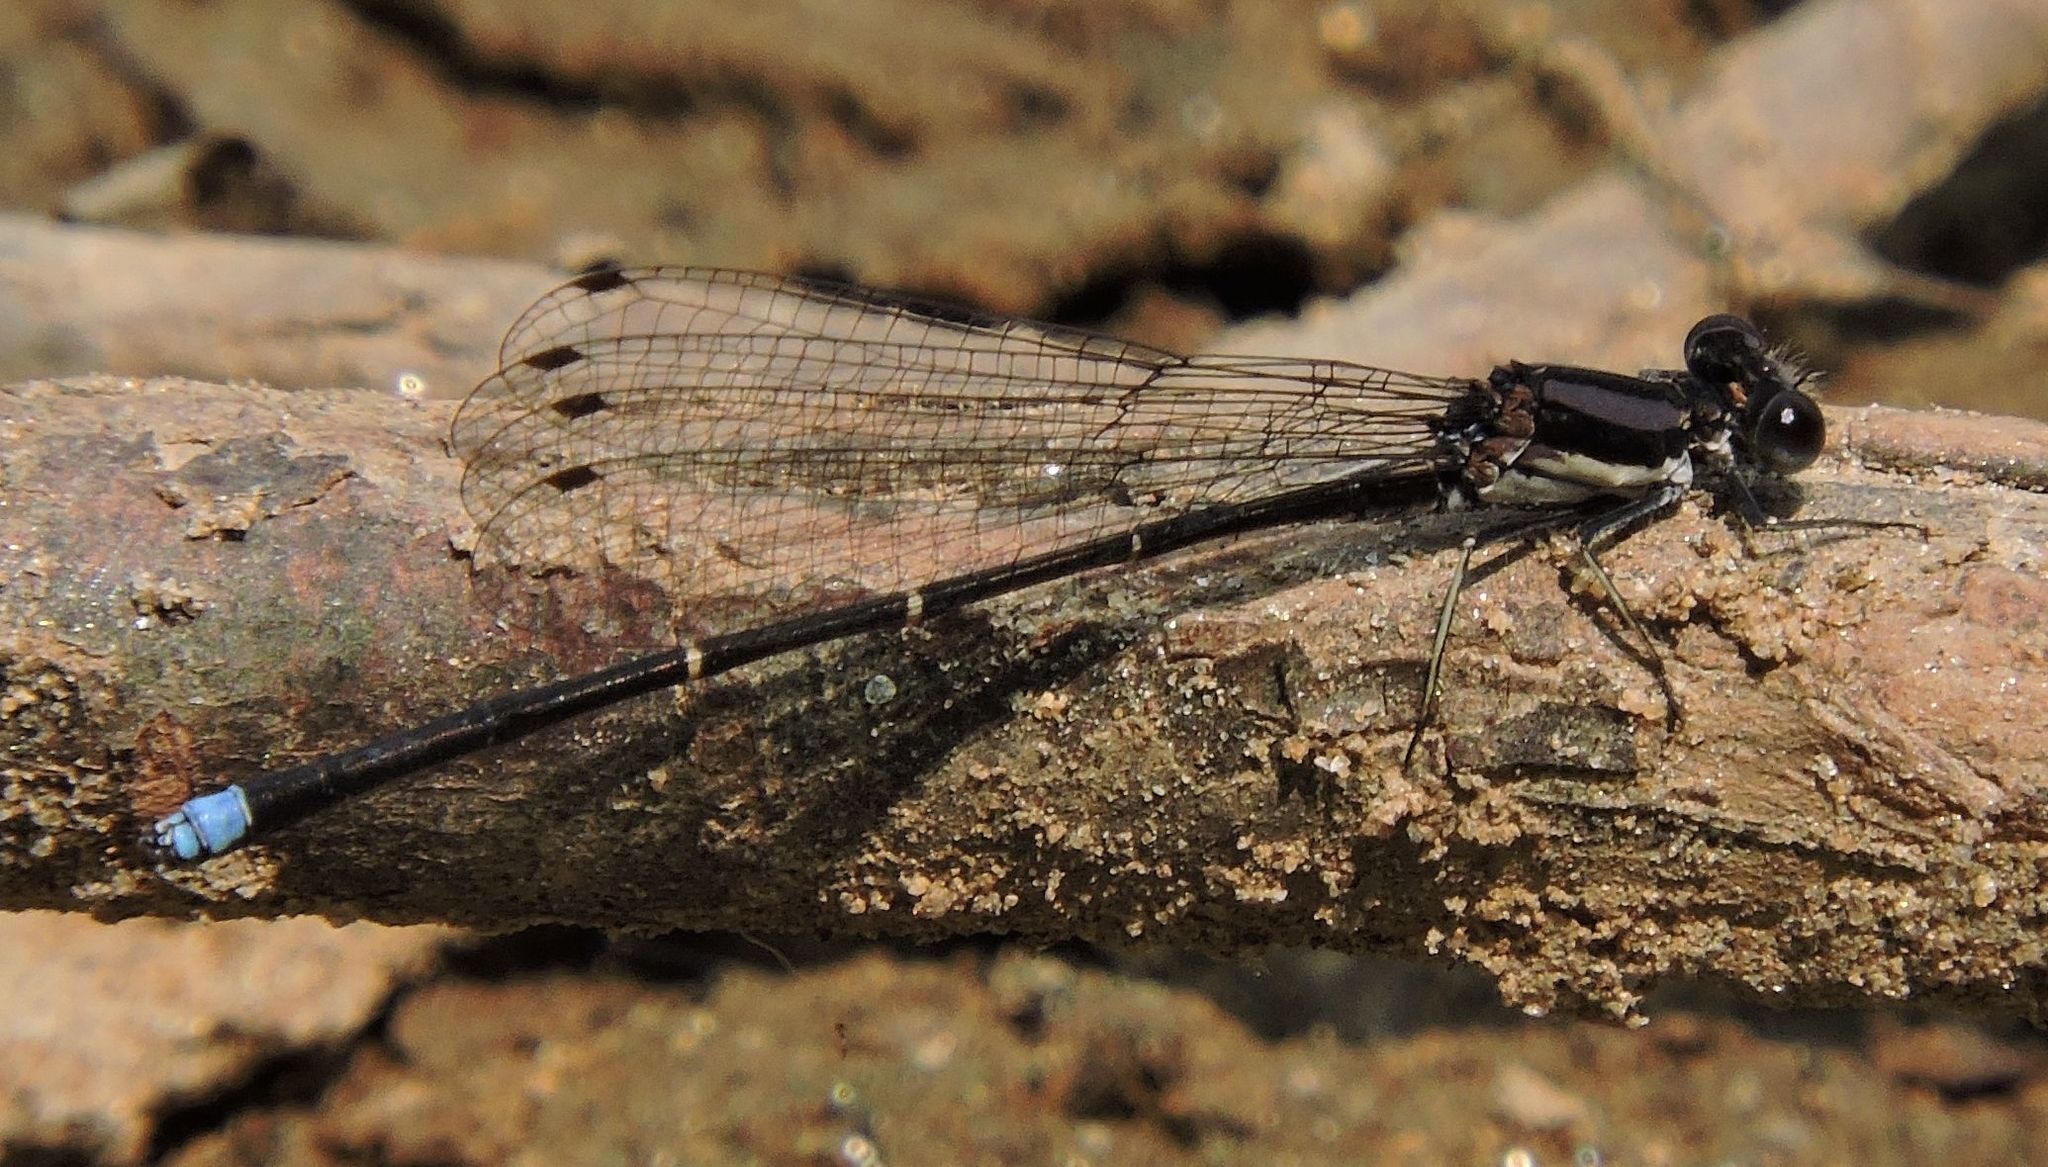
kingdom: Animalia
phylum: Arthropoda
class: Insecta
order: Odonata
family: Coenagrionidae
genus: Argia
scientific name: Argia tibialis
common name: Blue-tipped dancer
